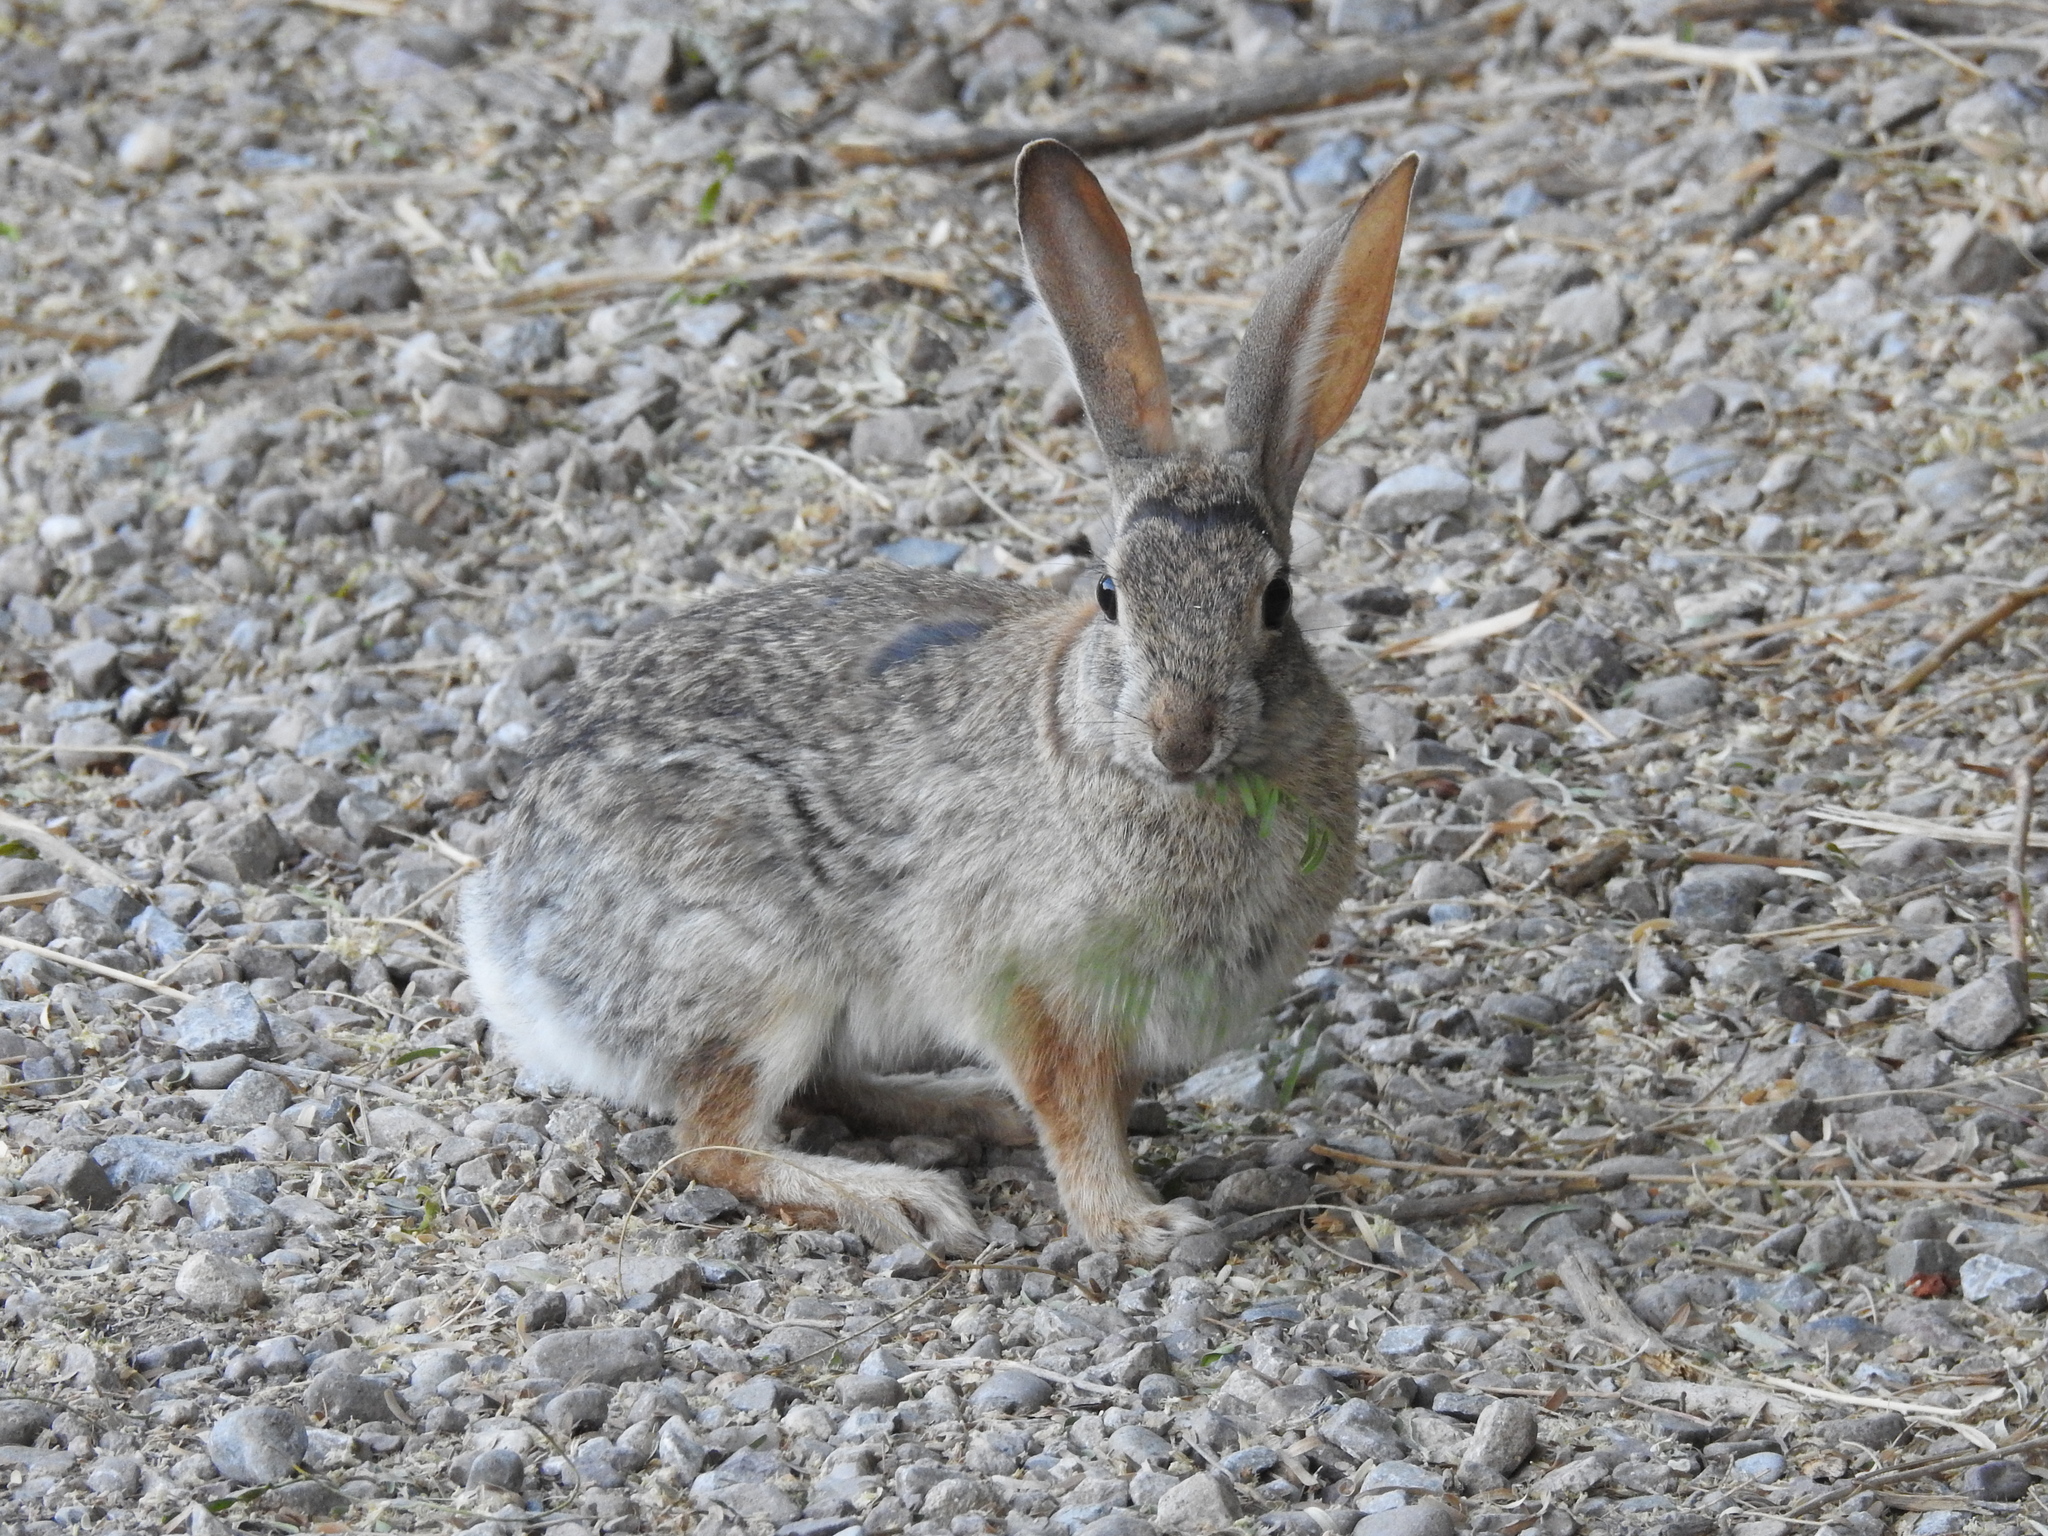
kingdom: Animalia
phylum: Chordata
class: Mammalia
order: Lagomorpha
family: Leporidae
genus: Sylvilagus
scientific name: Sylvilagus audubonii
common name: Desert cottontail
